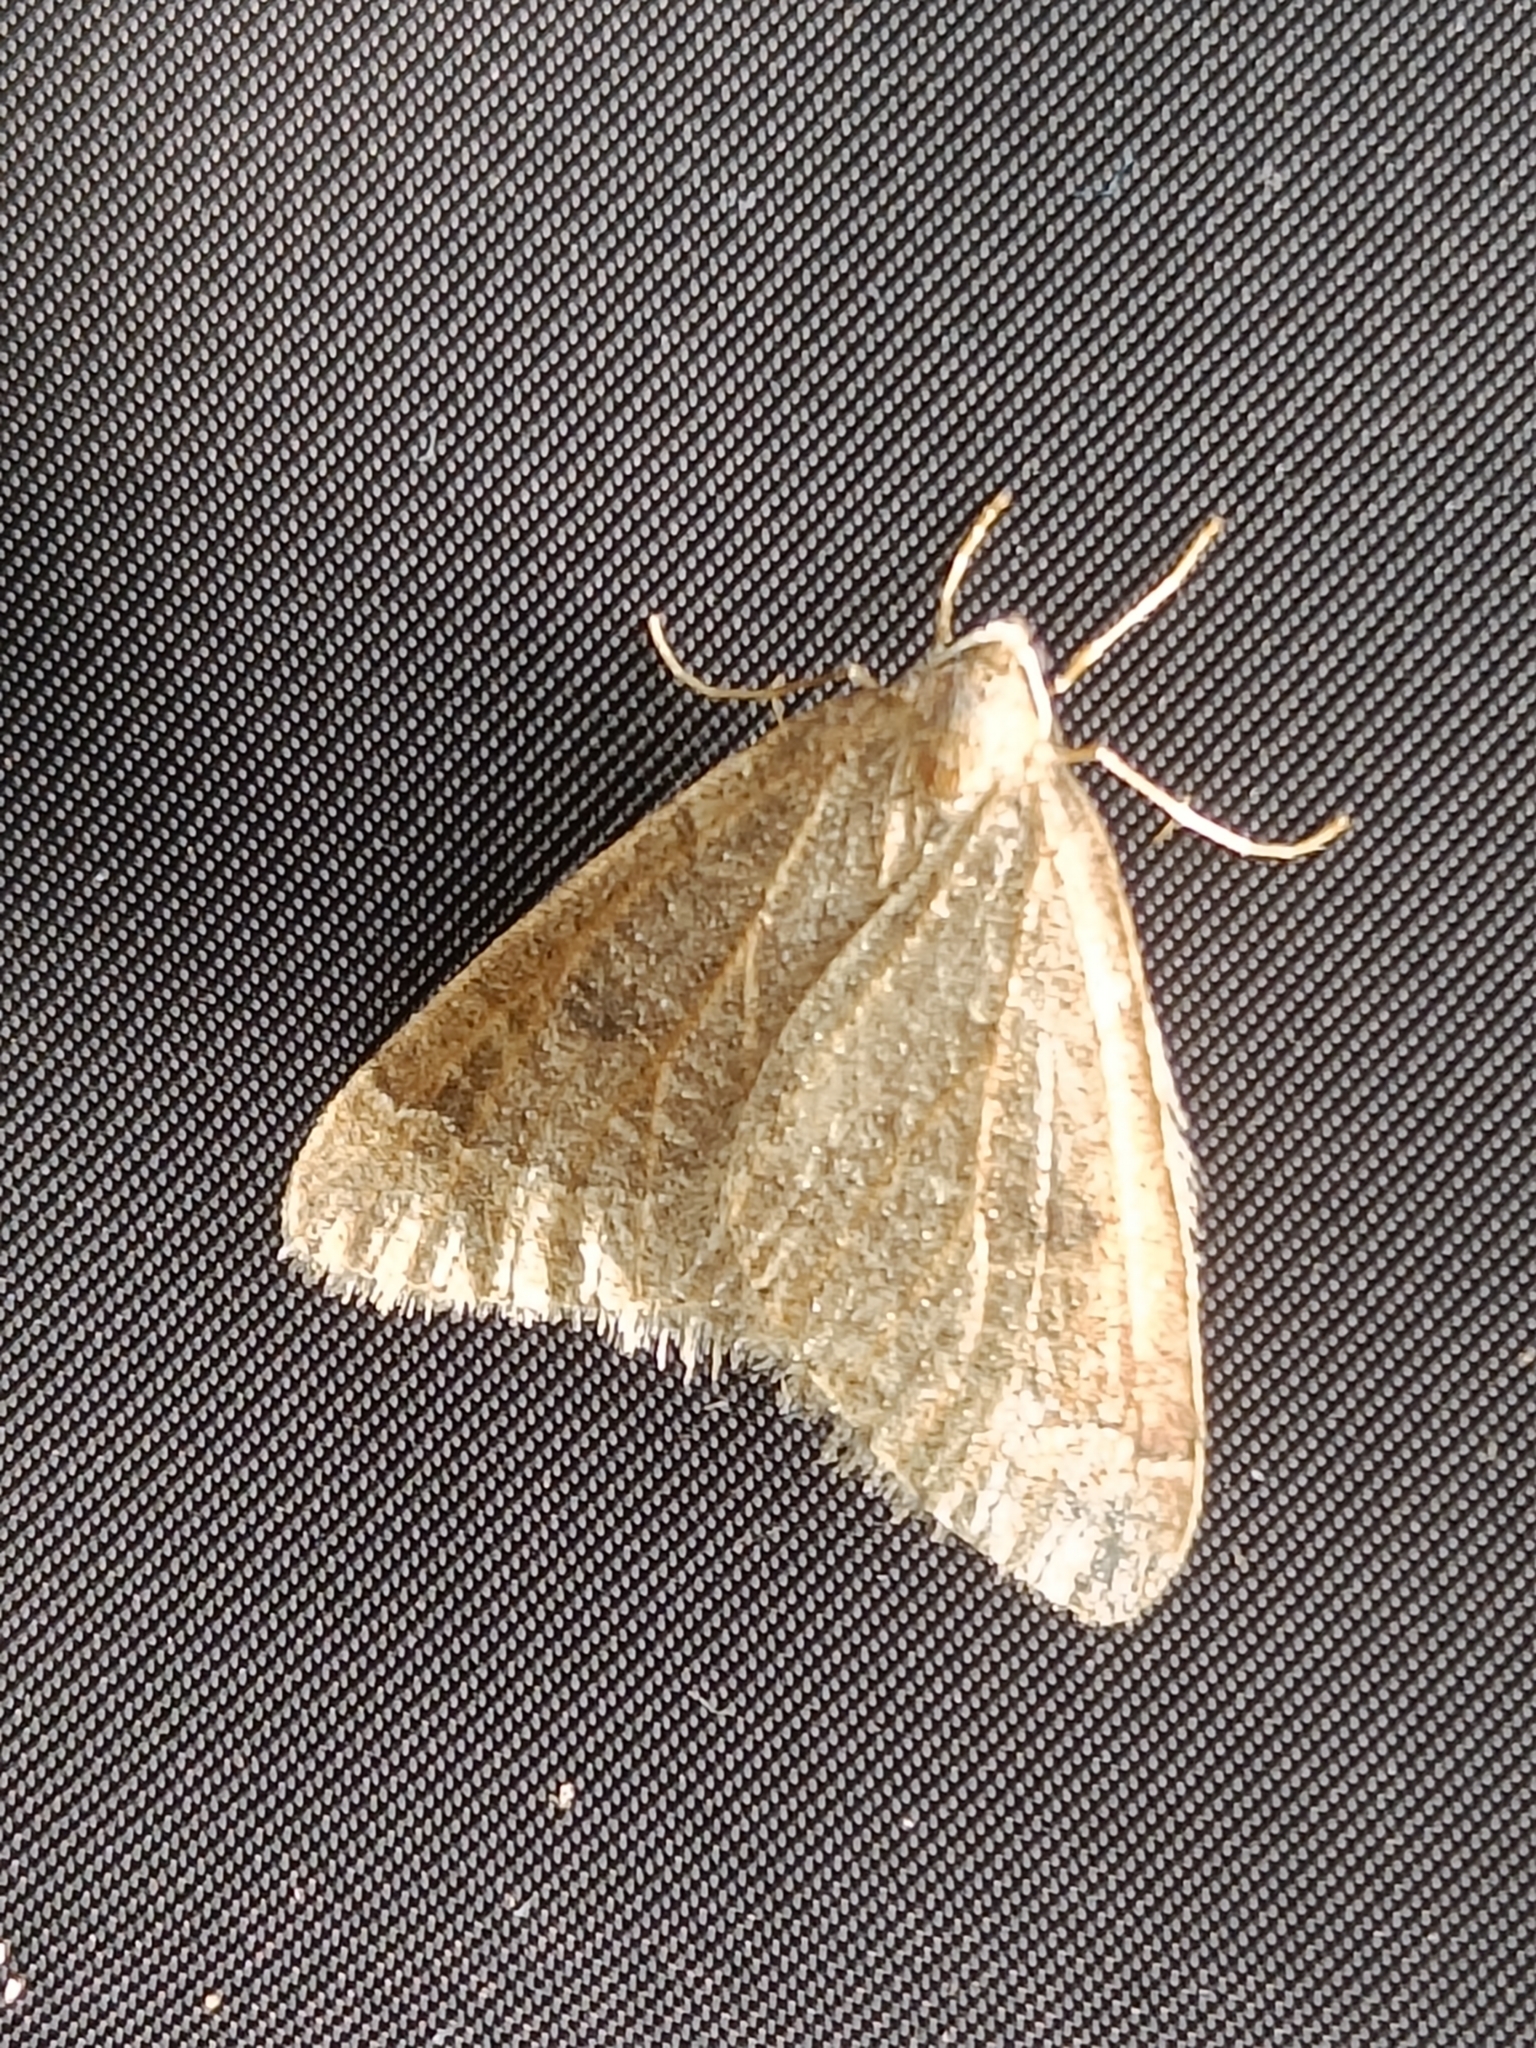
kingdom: Animalia
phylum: Arthropoda
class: Insecta
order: Lepidoptera
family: Geometridae
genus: Theria
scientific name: Theria primaria
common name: Early moth
